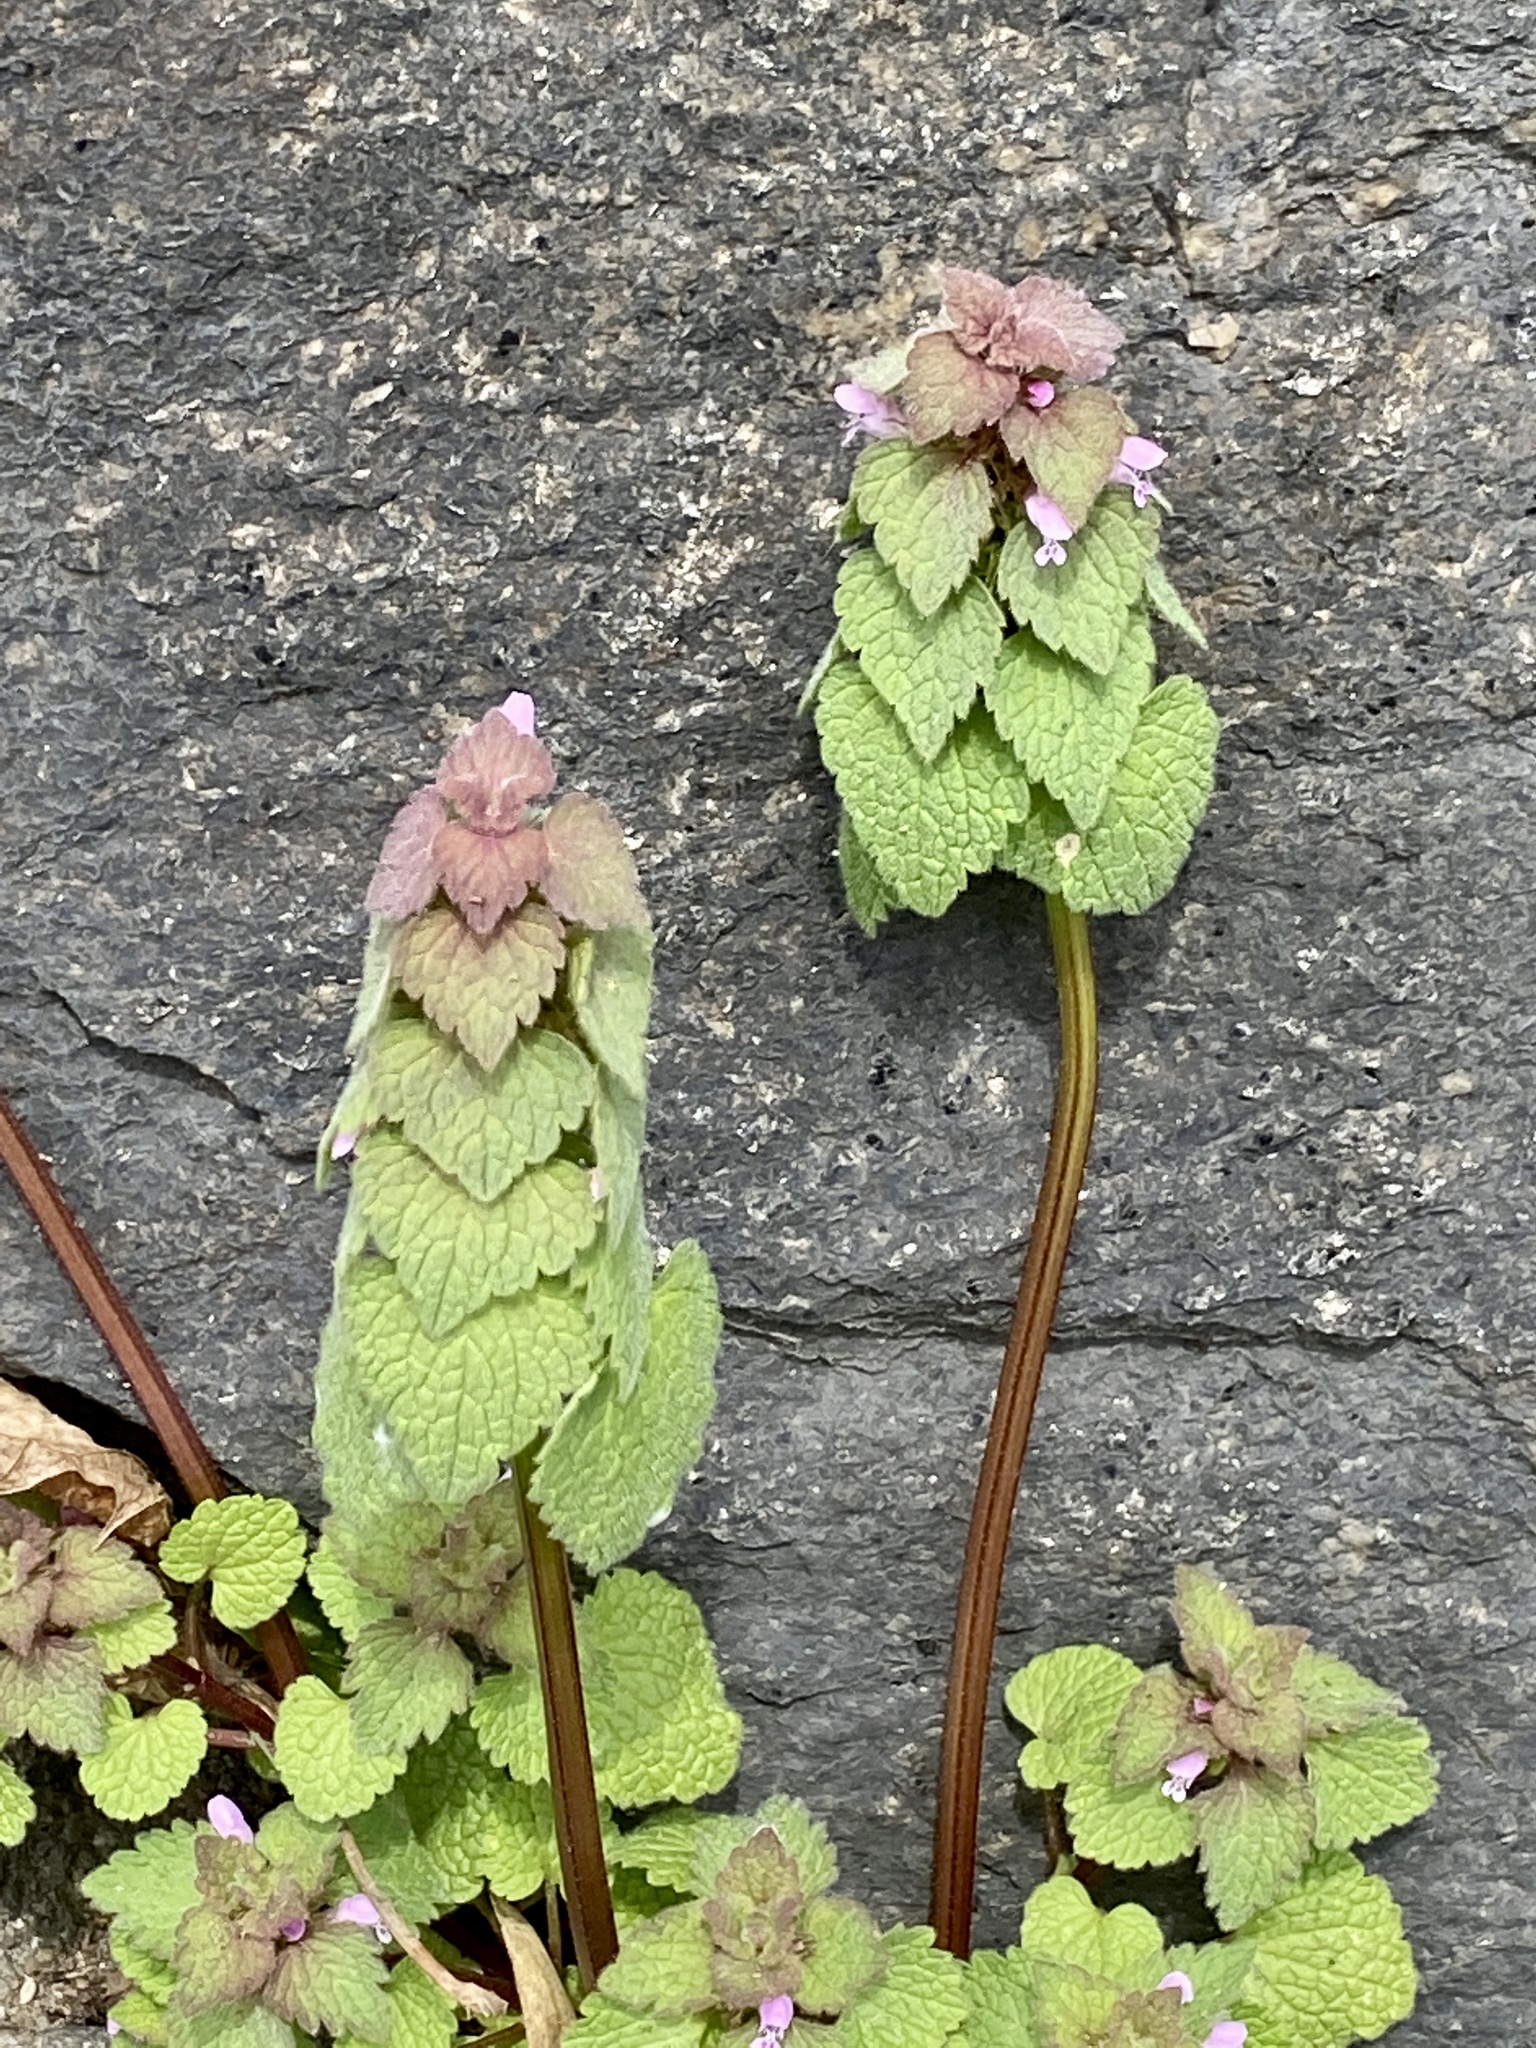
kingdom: Plantae
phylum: Tracheophyta
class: Magnoliopsida
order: Lamiales
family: Lamiaceae
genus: Lamium
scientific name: Lamium purpureum
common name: Red dead-nettle
